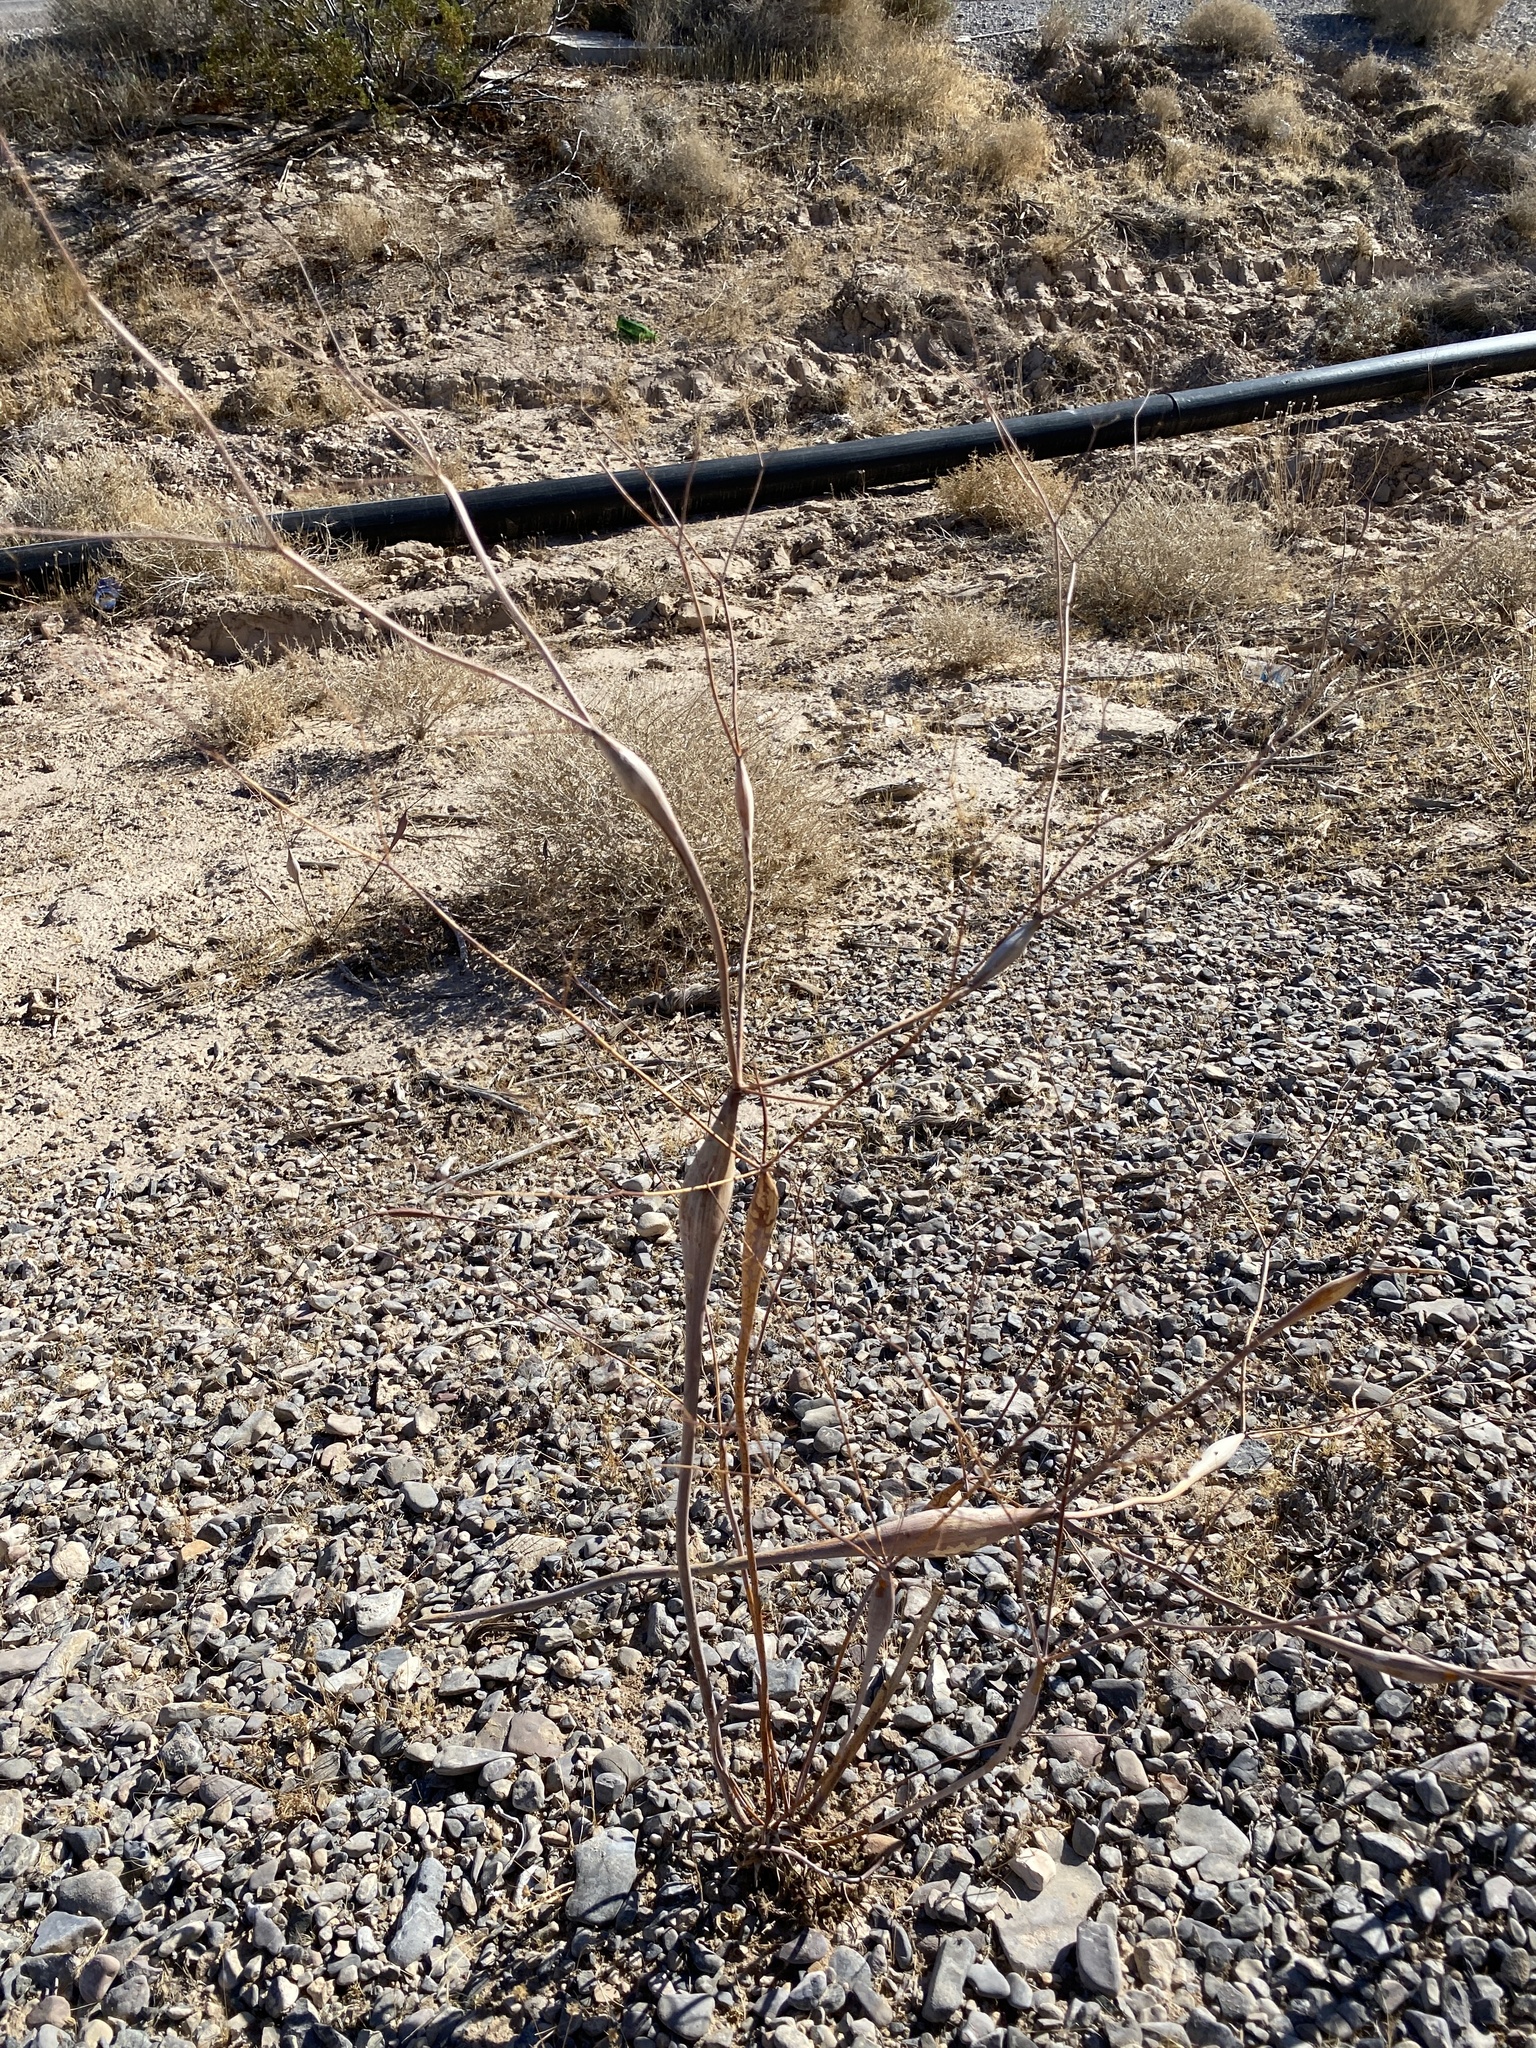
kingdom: Plantae
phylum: Tracheophyta
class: Magnoliopsida
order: Caryophyllales
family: Polygonaceae
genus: Eriogonum
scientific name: Eriogonum inflatum
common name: Desert trumpet
